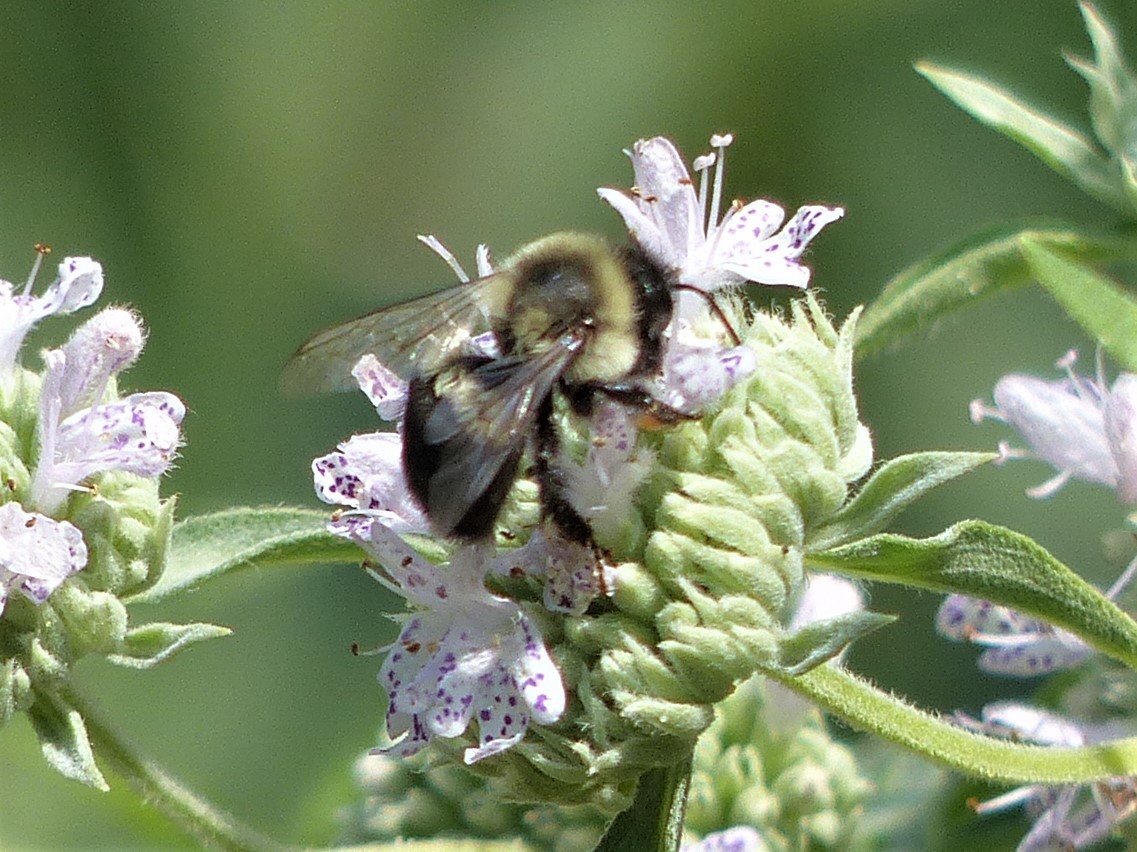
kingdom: Animalia
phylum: Arthropoda
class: Insecta
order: Hymenoptera
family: Apidae
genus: Bombus
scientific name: Bombus impatiens
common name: Common eastern bumble bee
